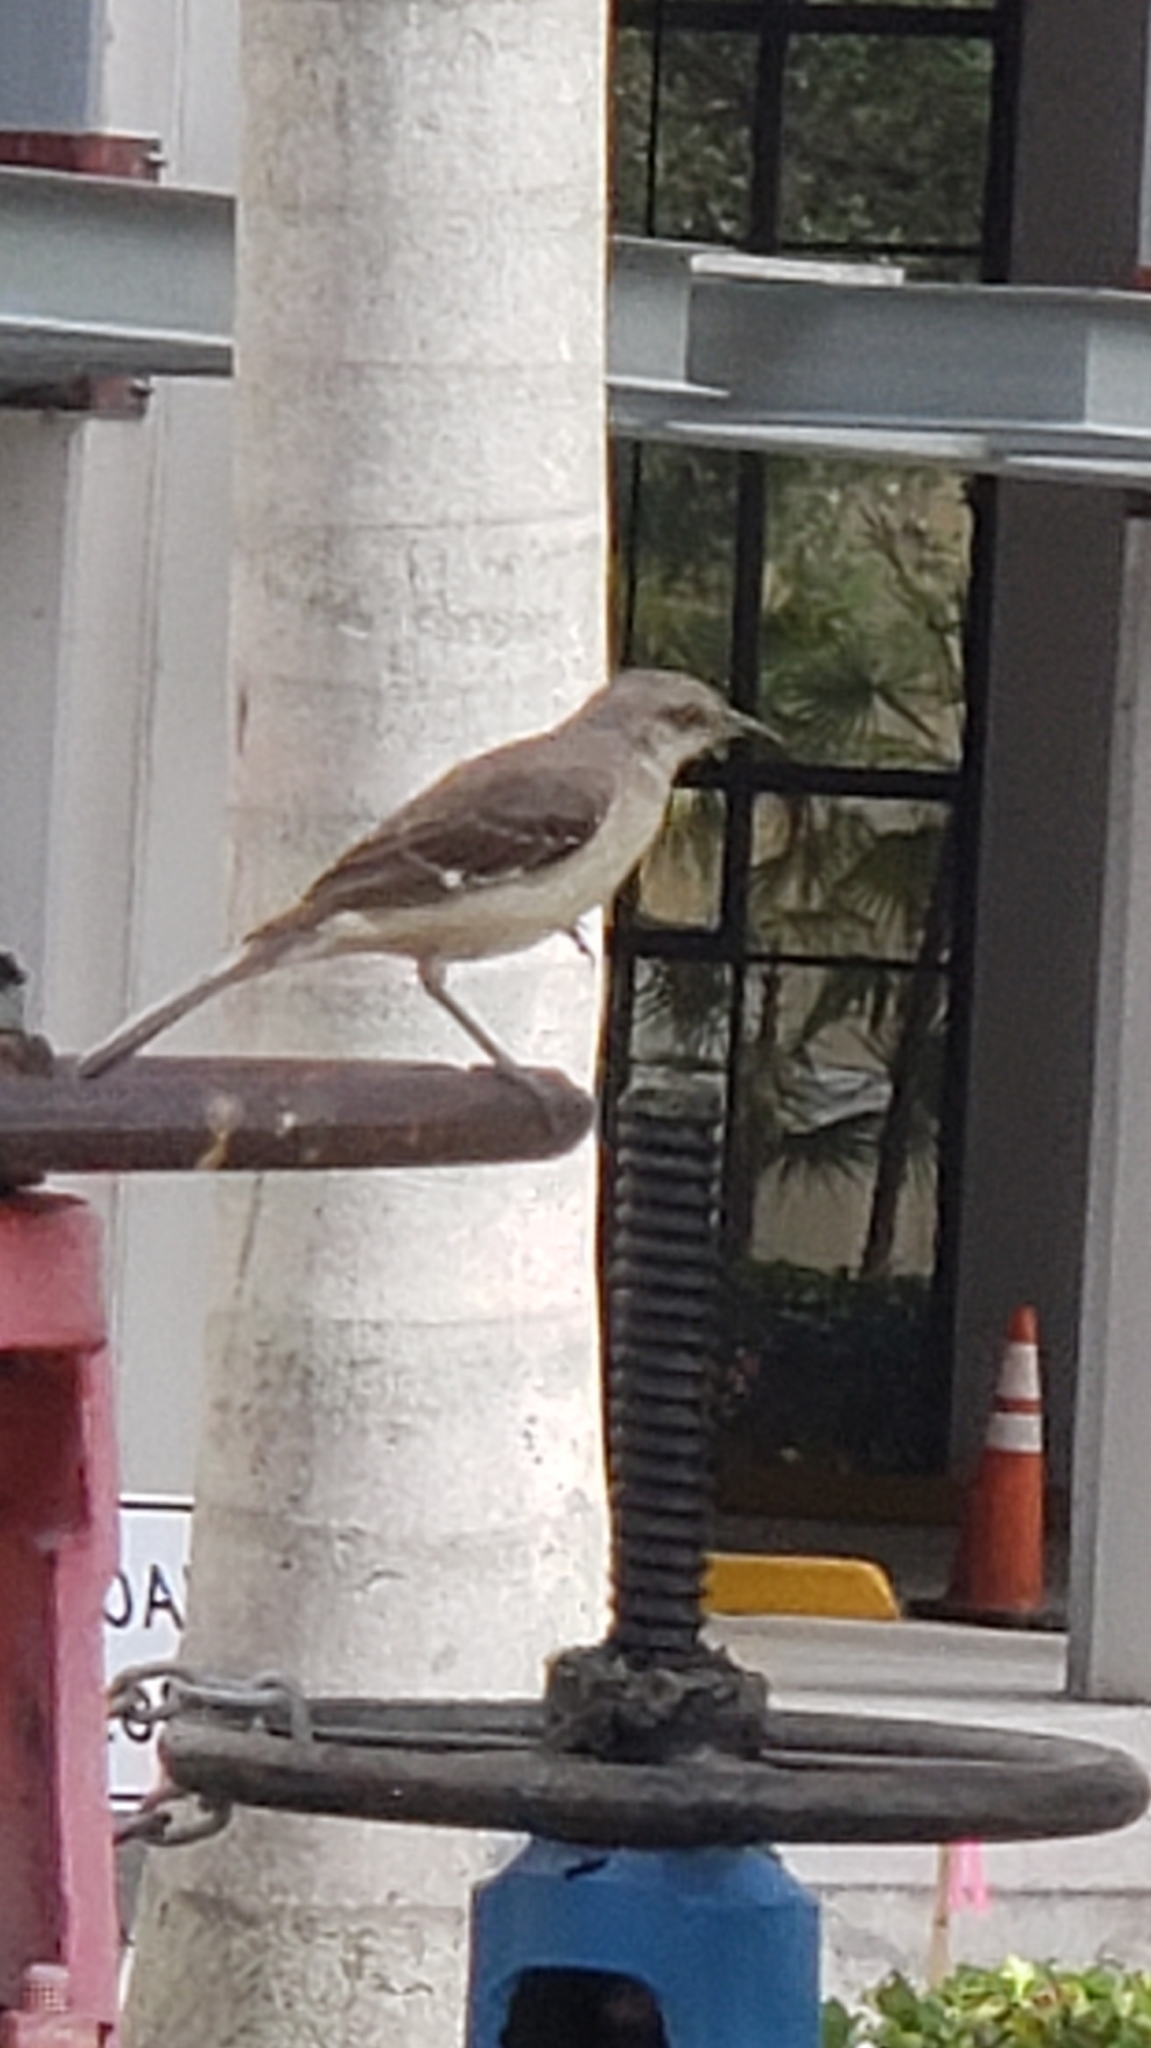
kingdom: Animalia
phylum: Chordata
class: Aves
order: Passeriformes
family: Mimidae
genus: Mimus
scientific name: Mimus polyglottos
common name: Northern mockingbird
